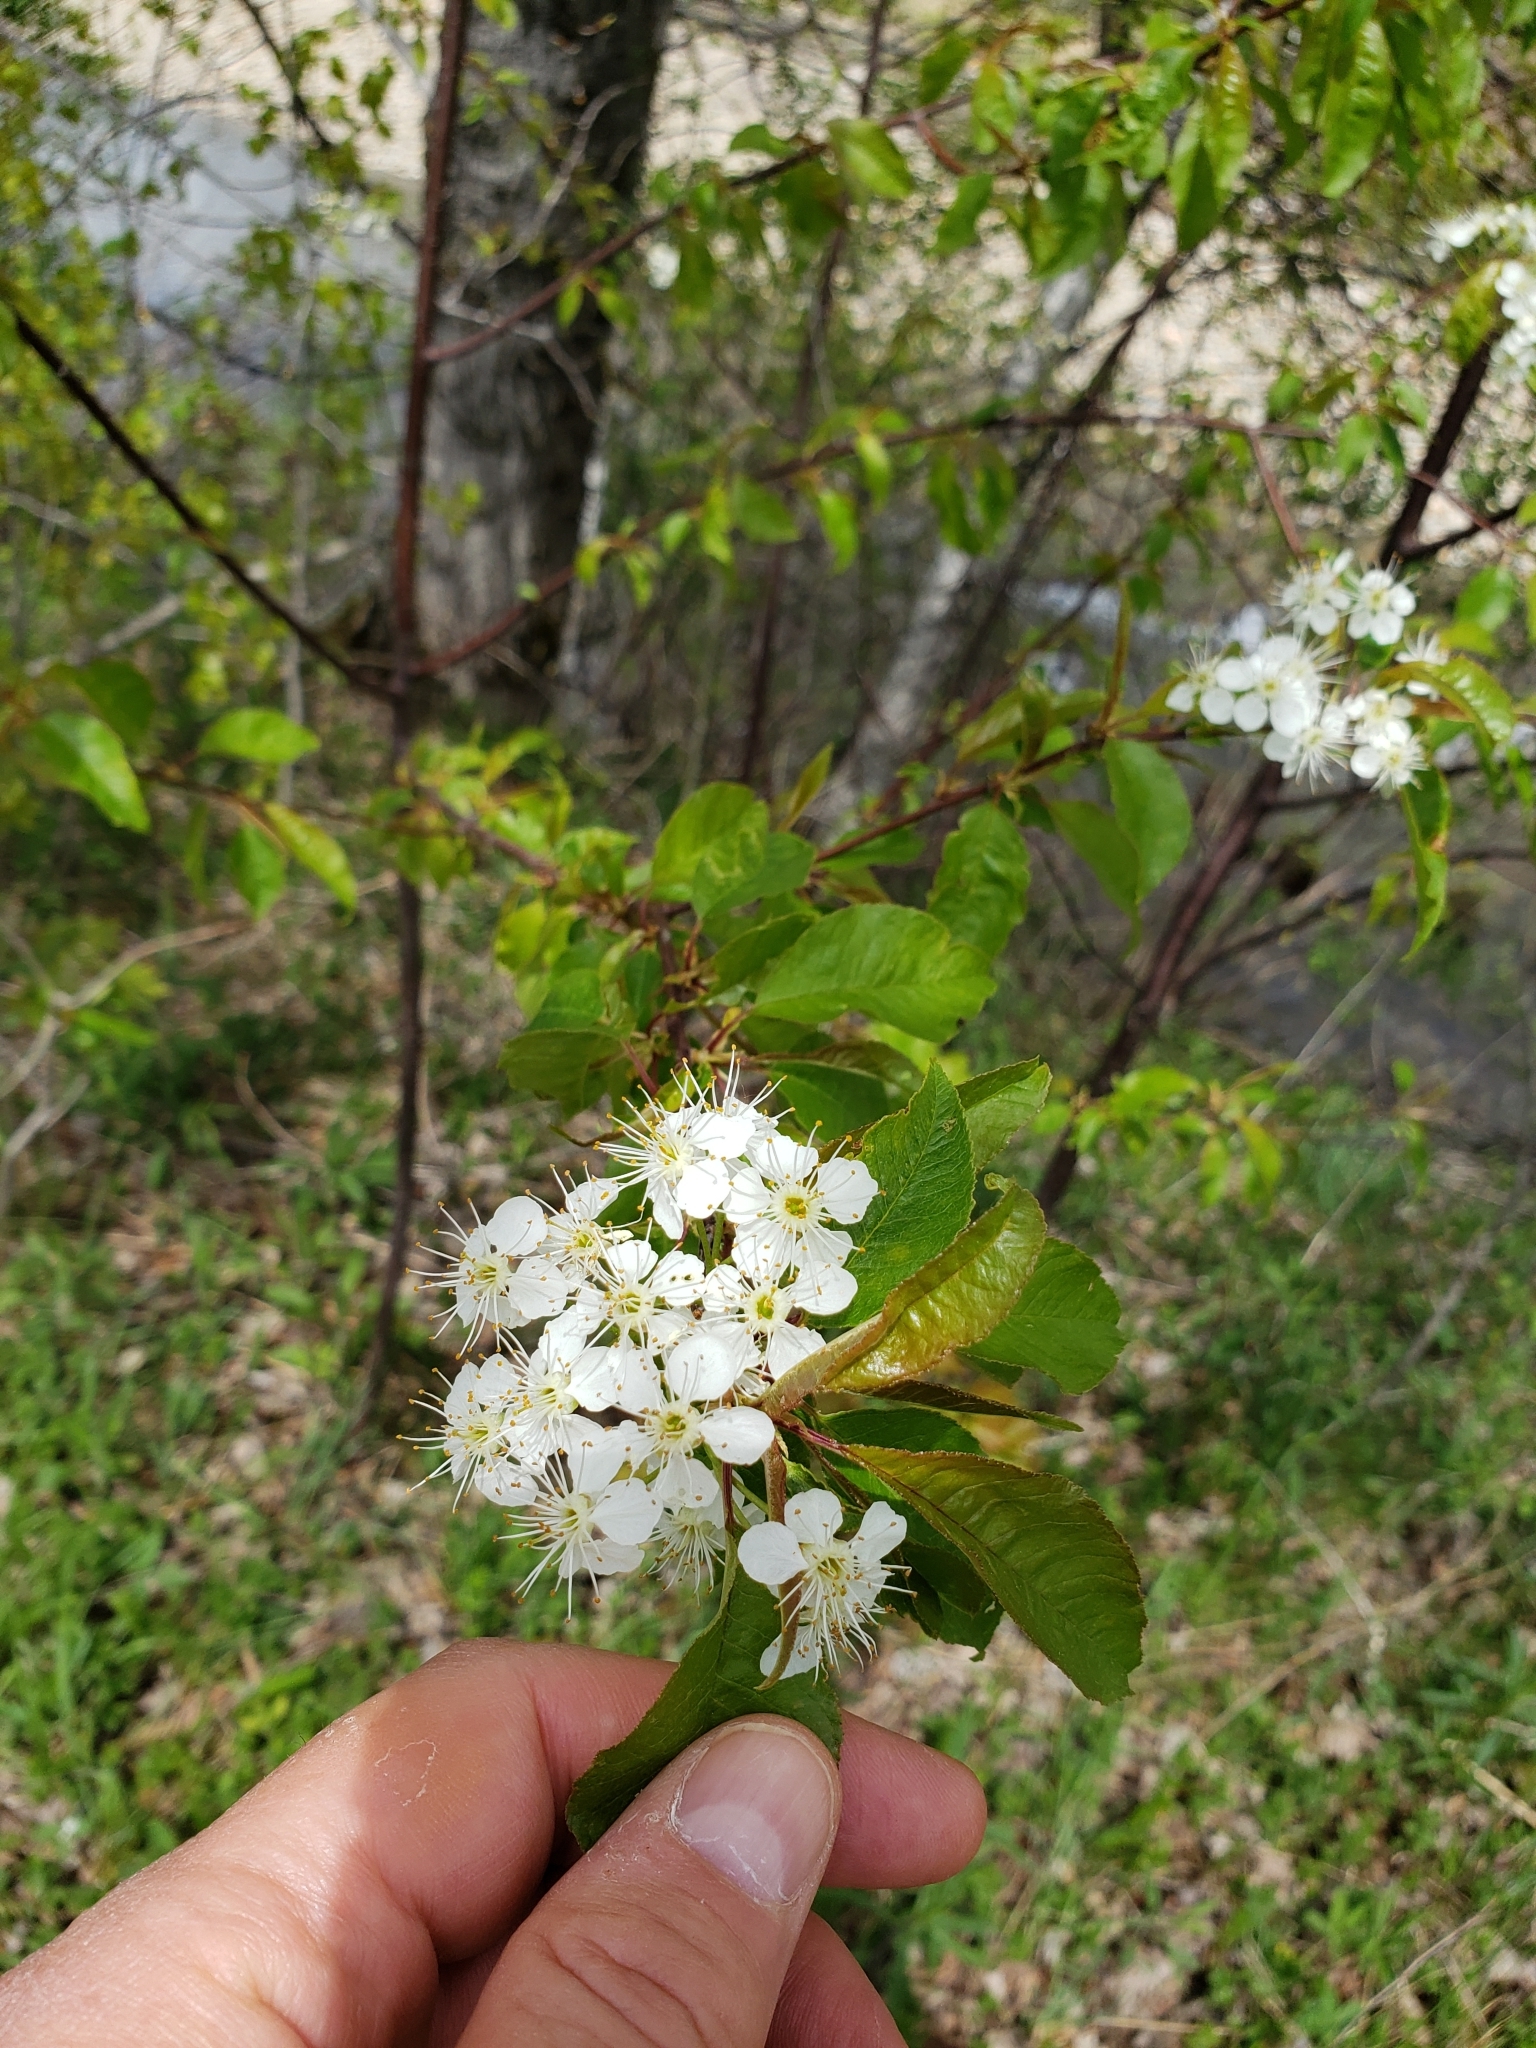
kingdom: Plantae
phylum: Tracheophyta
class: Magnoliopsida
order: Rosales
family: Rosaceae
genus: Prunus
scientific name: Prunus pensylvanica
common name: Pin cherry
